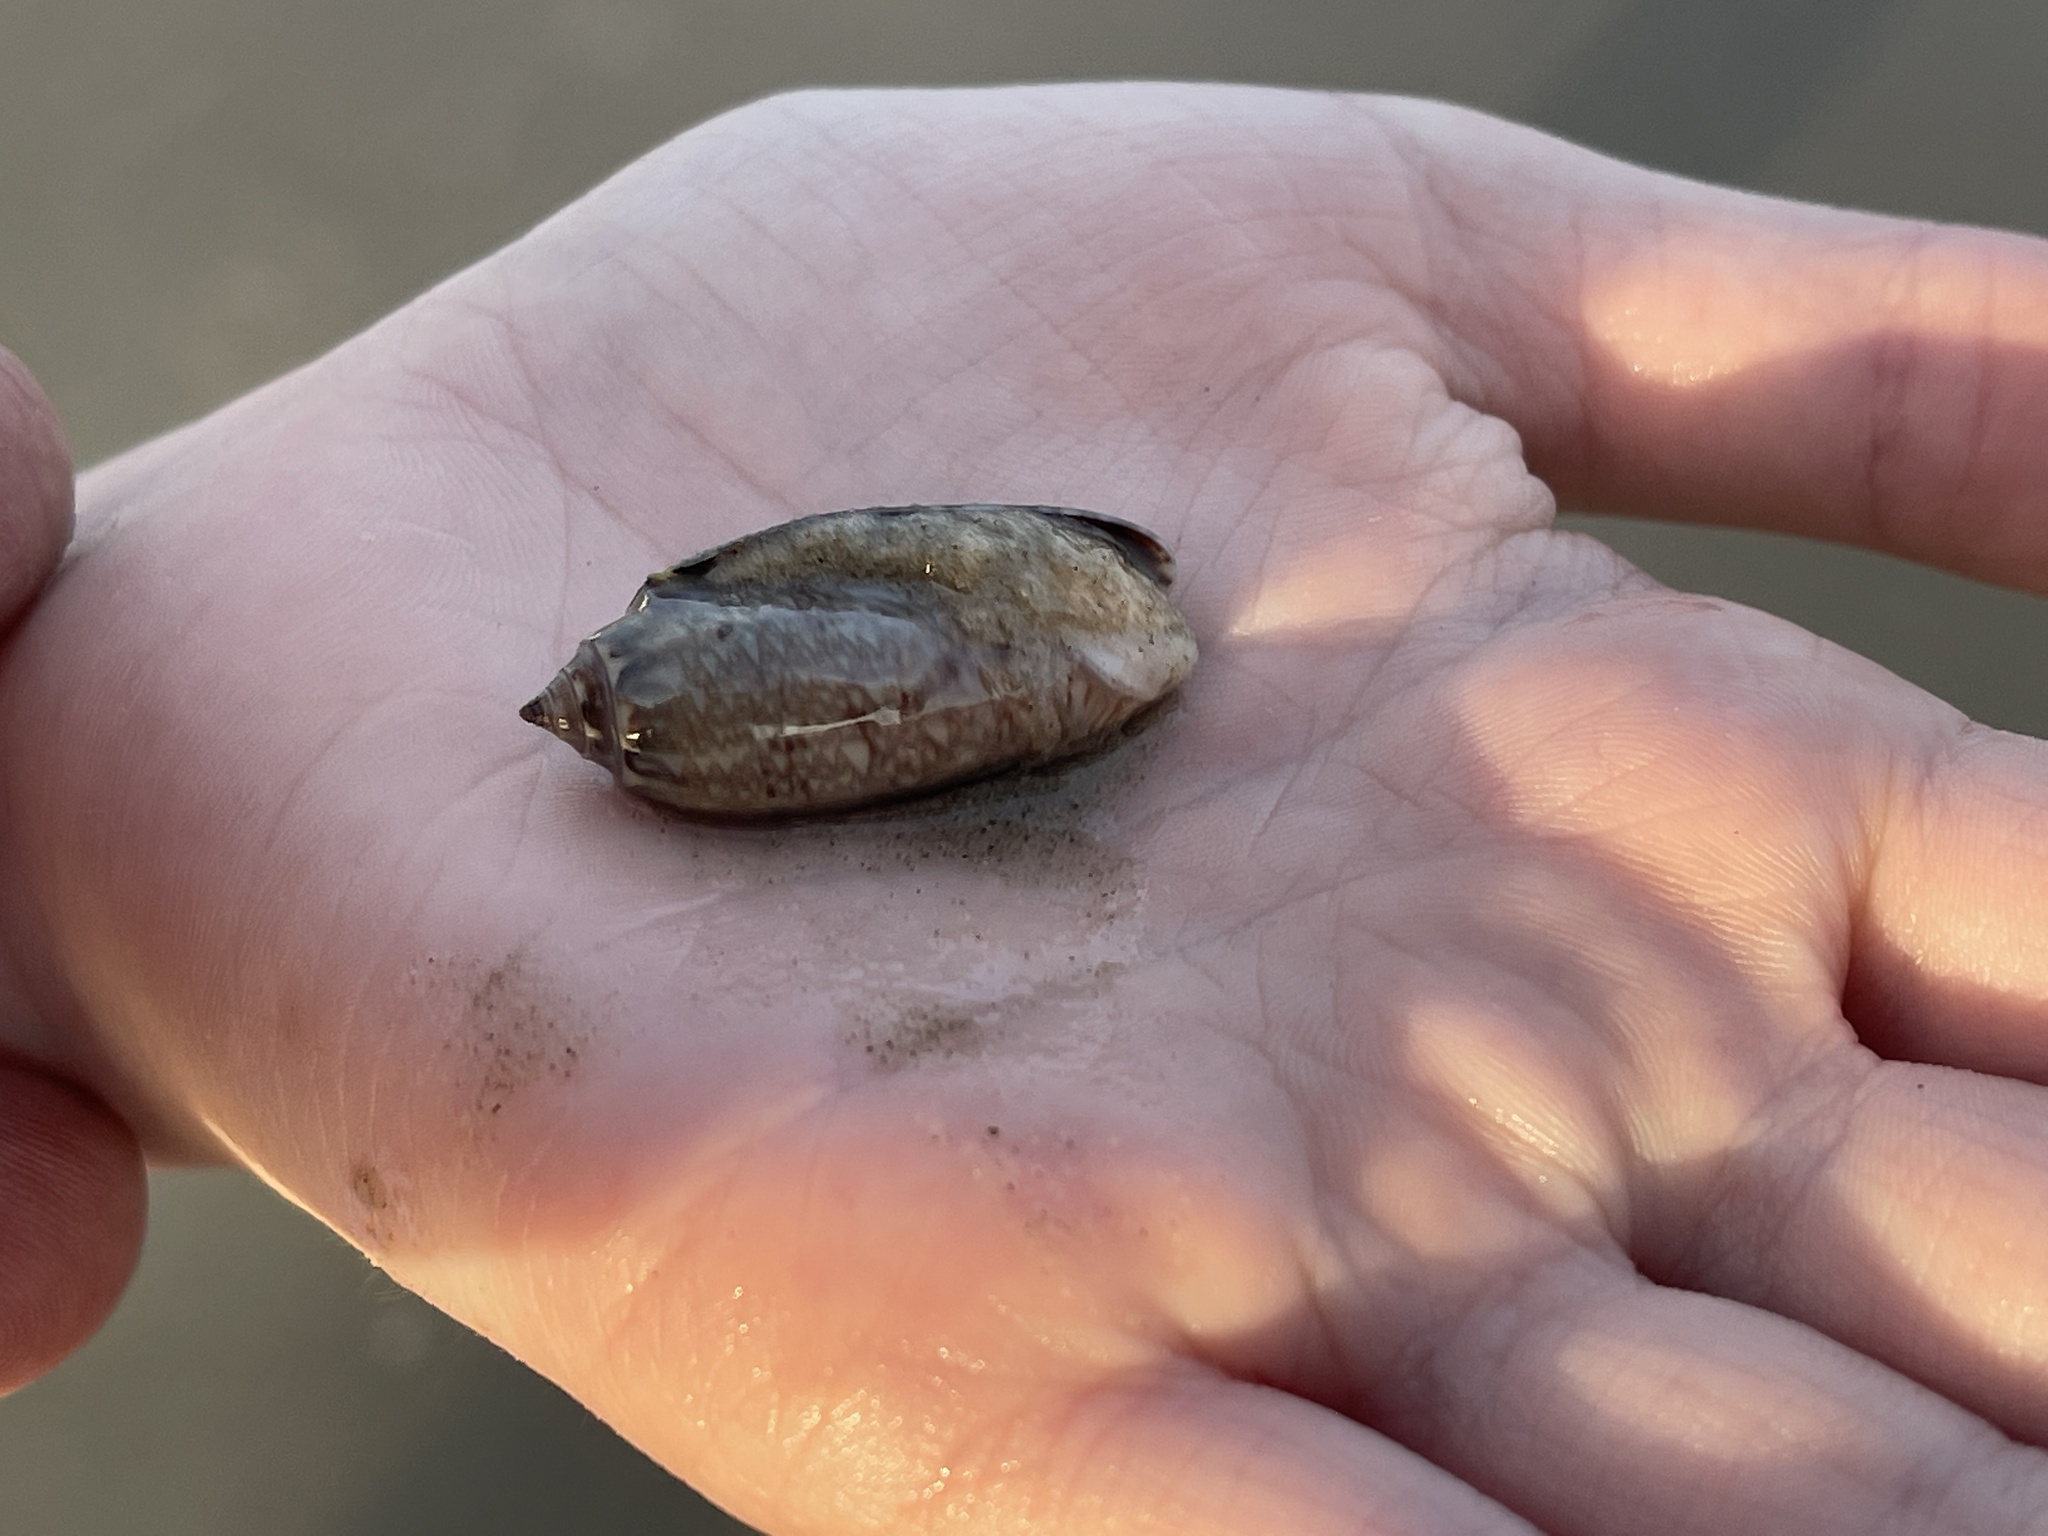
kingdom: Animalia
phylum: Mollusca
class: Gastropoda
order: Neogastropoda
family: Olividae
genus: Oliva
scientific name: Oliva sayana
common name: Lettered olive
